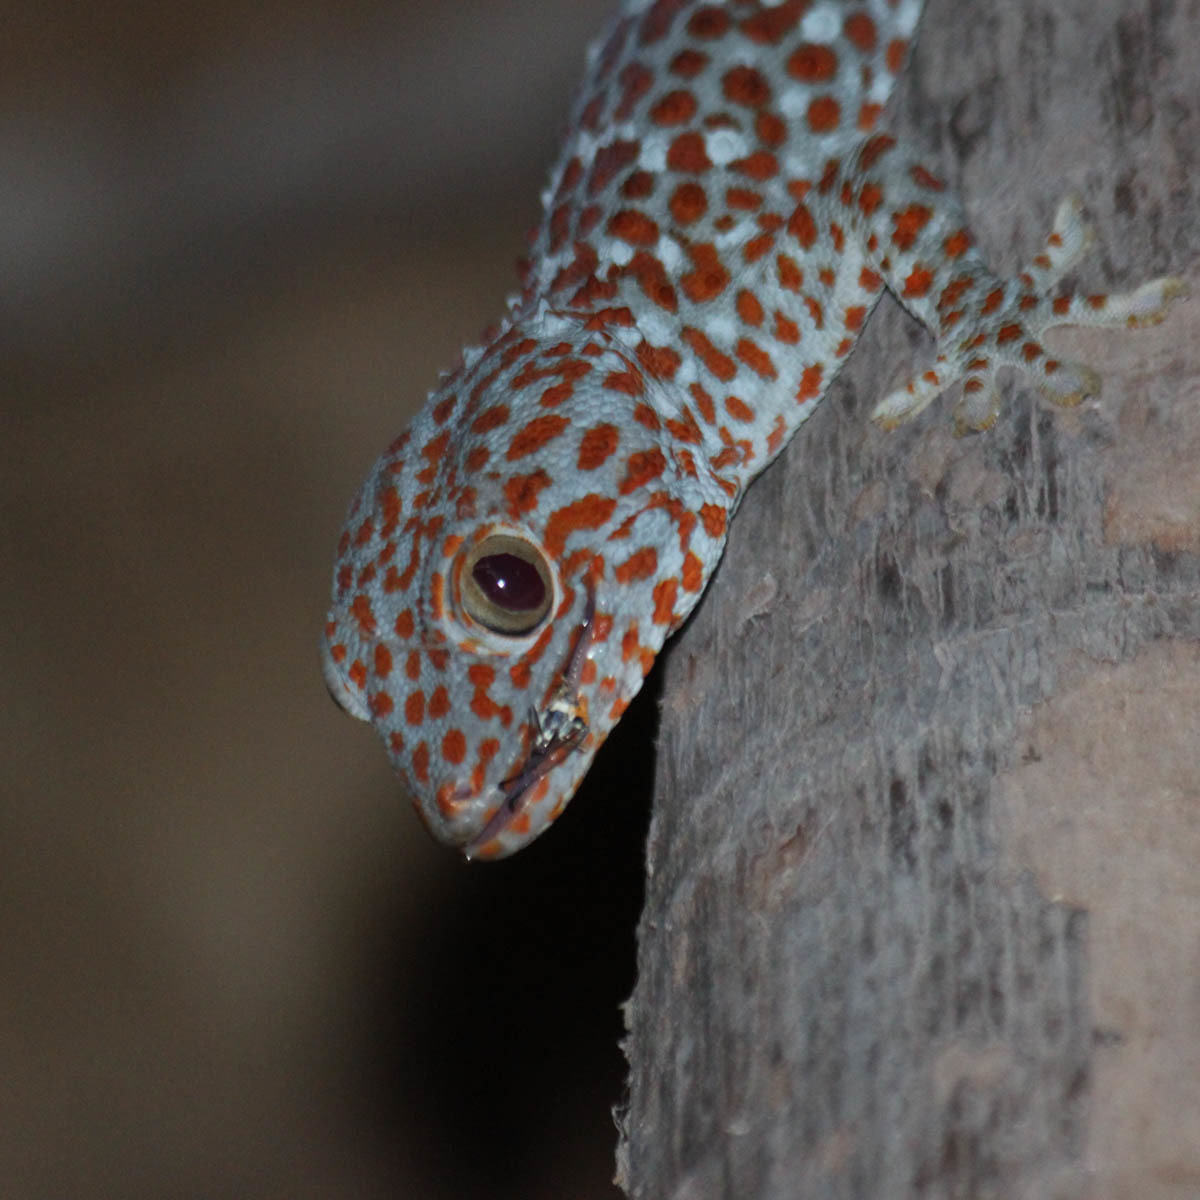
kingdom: Animalia
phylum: Chordata
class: Squamata
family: Gekkonidae
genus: Gekko
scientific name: Gekko gecko
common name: Tokay gecko
